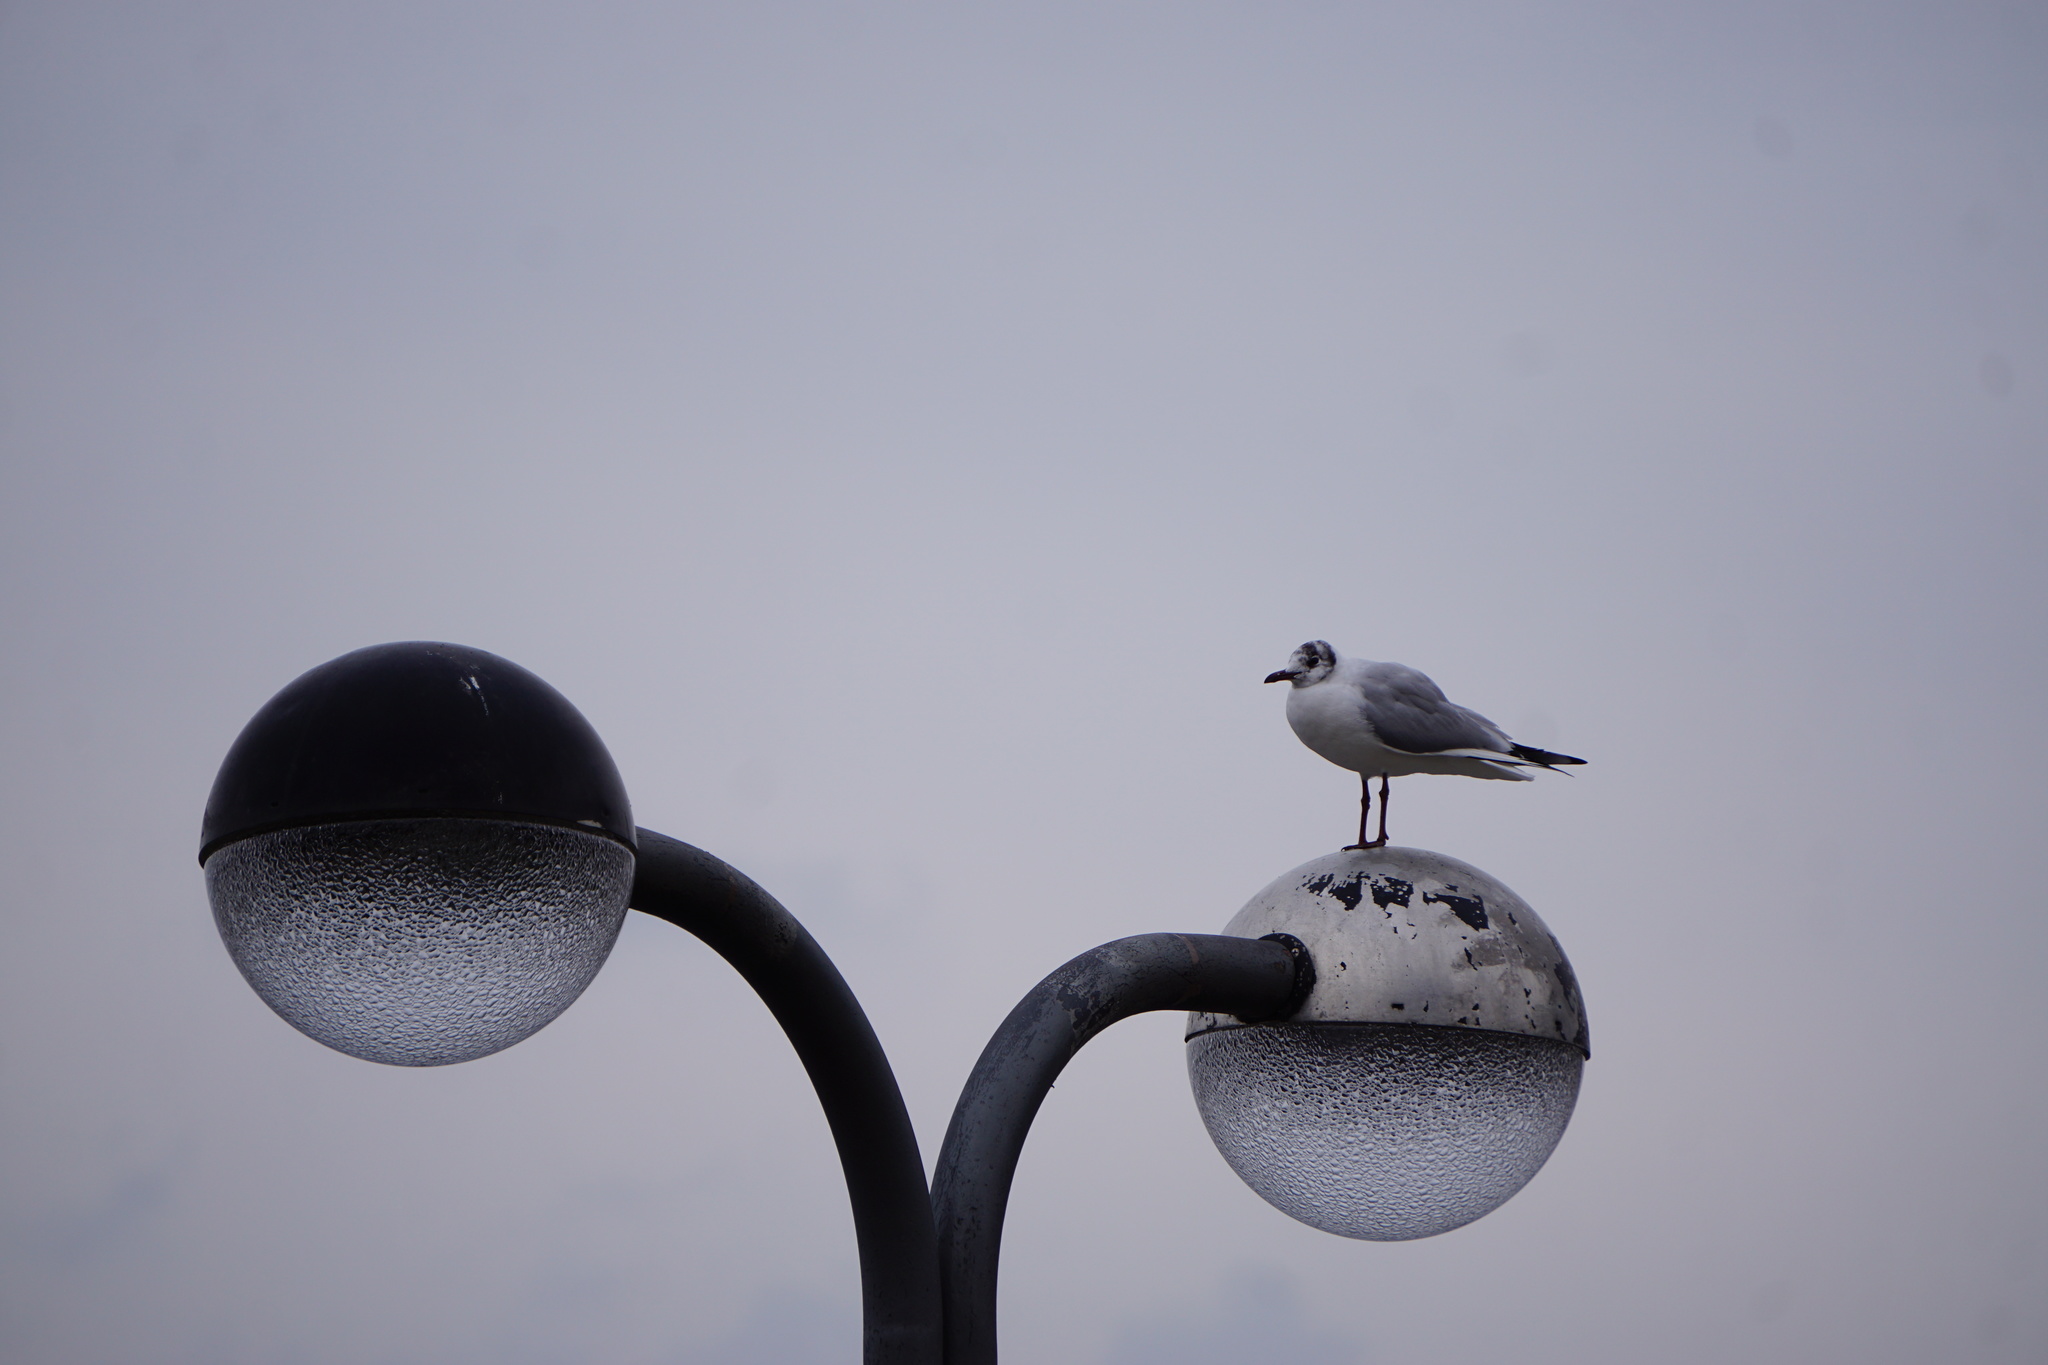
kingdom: Animalia
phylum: Chordata
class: Aves
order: Charadriiformes
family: Laridae
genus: Chroicocephalus
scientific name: Chroicocephalus ridibundus
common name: Black-headed gull
